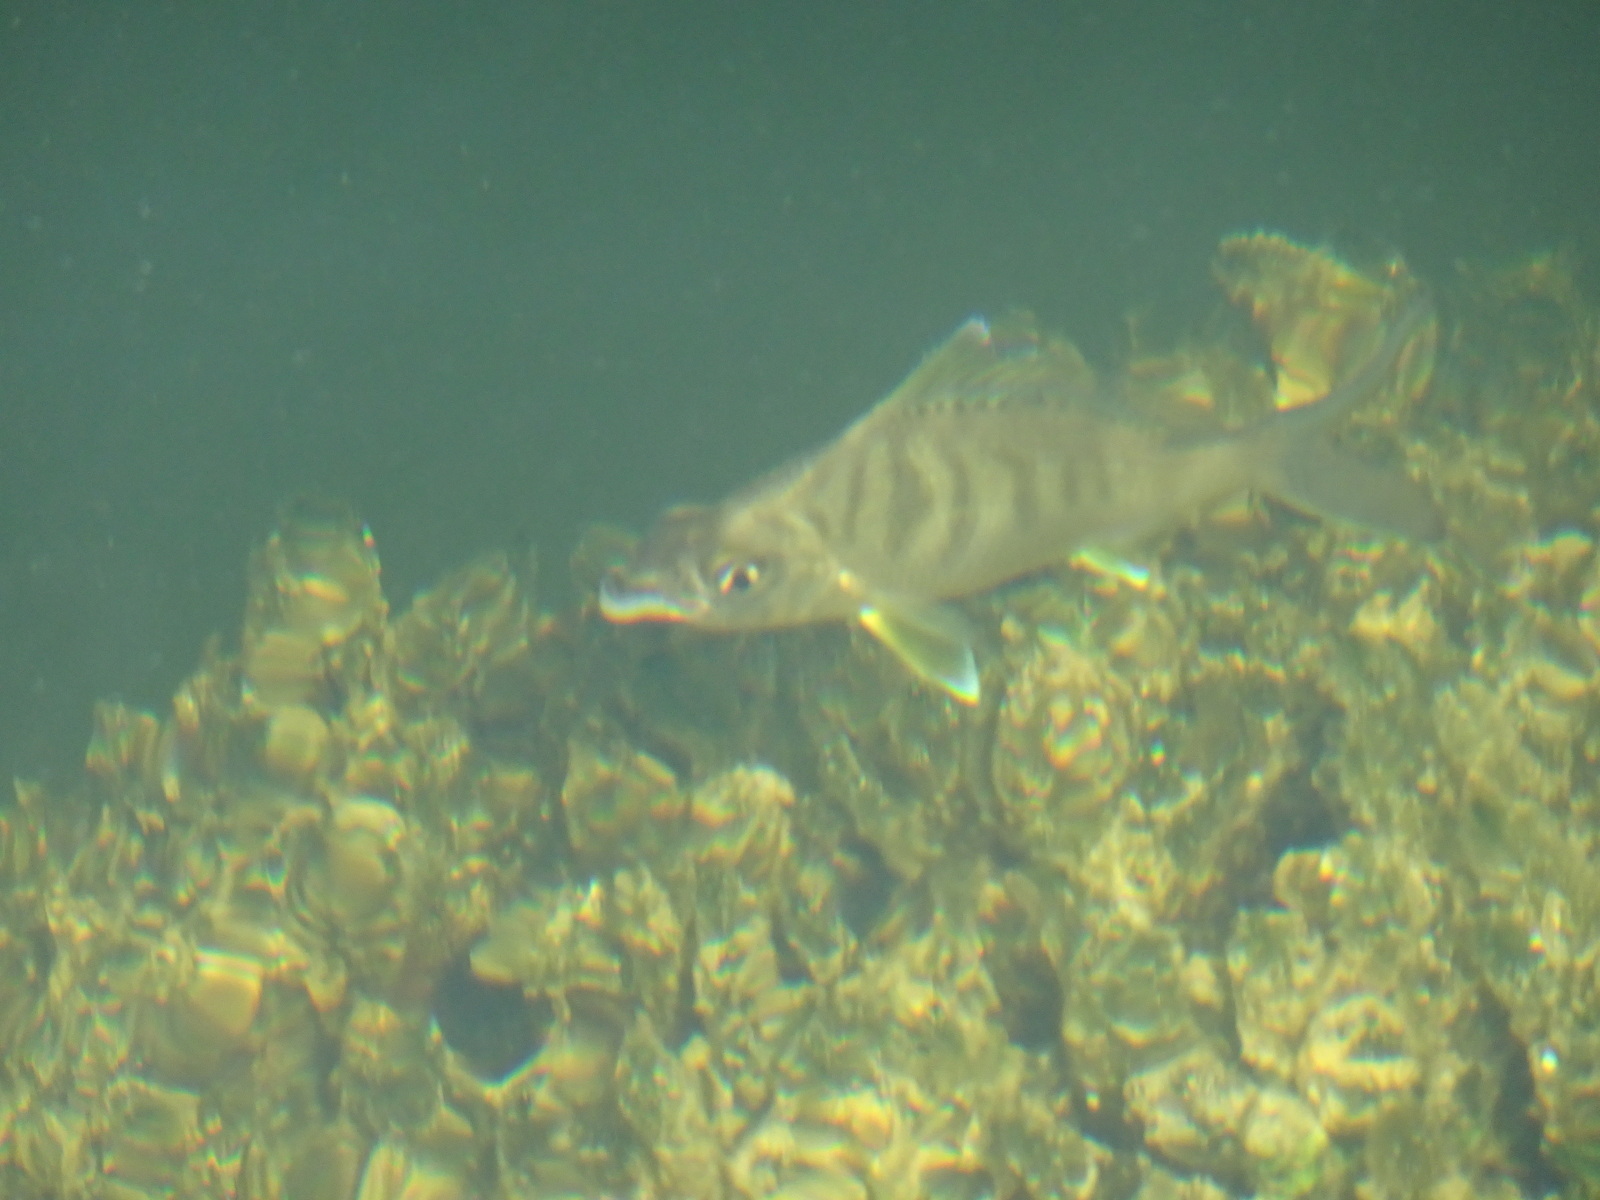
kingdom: Animalia
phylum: Chordata
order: Perciformes
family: Gerreidae
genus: Gerres
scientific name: Gerres cinereus
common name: Hedow
